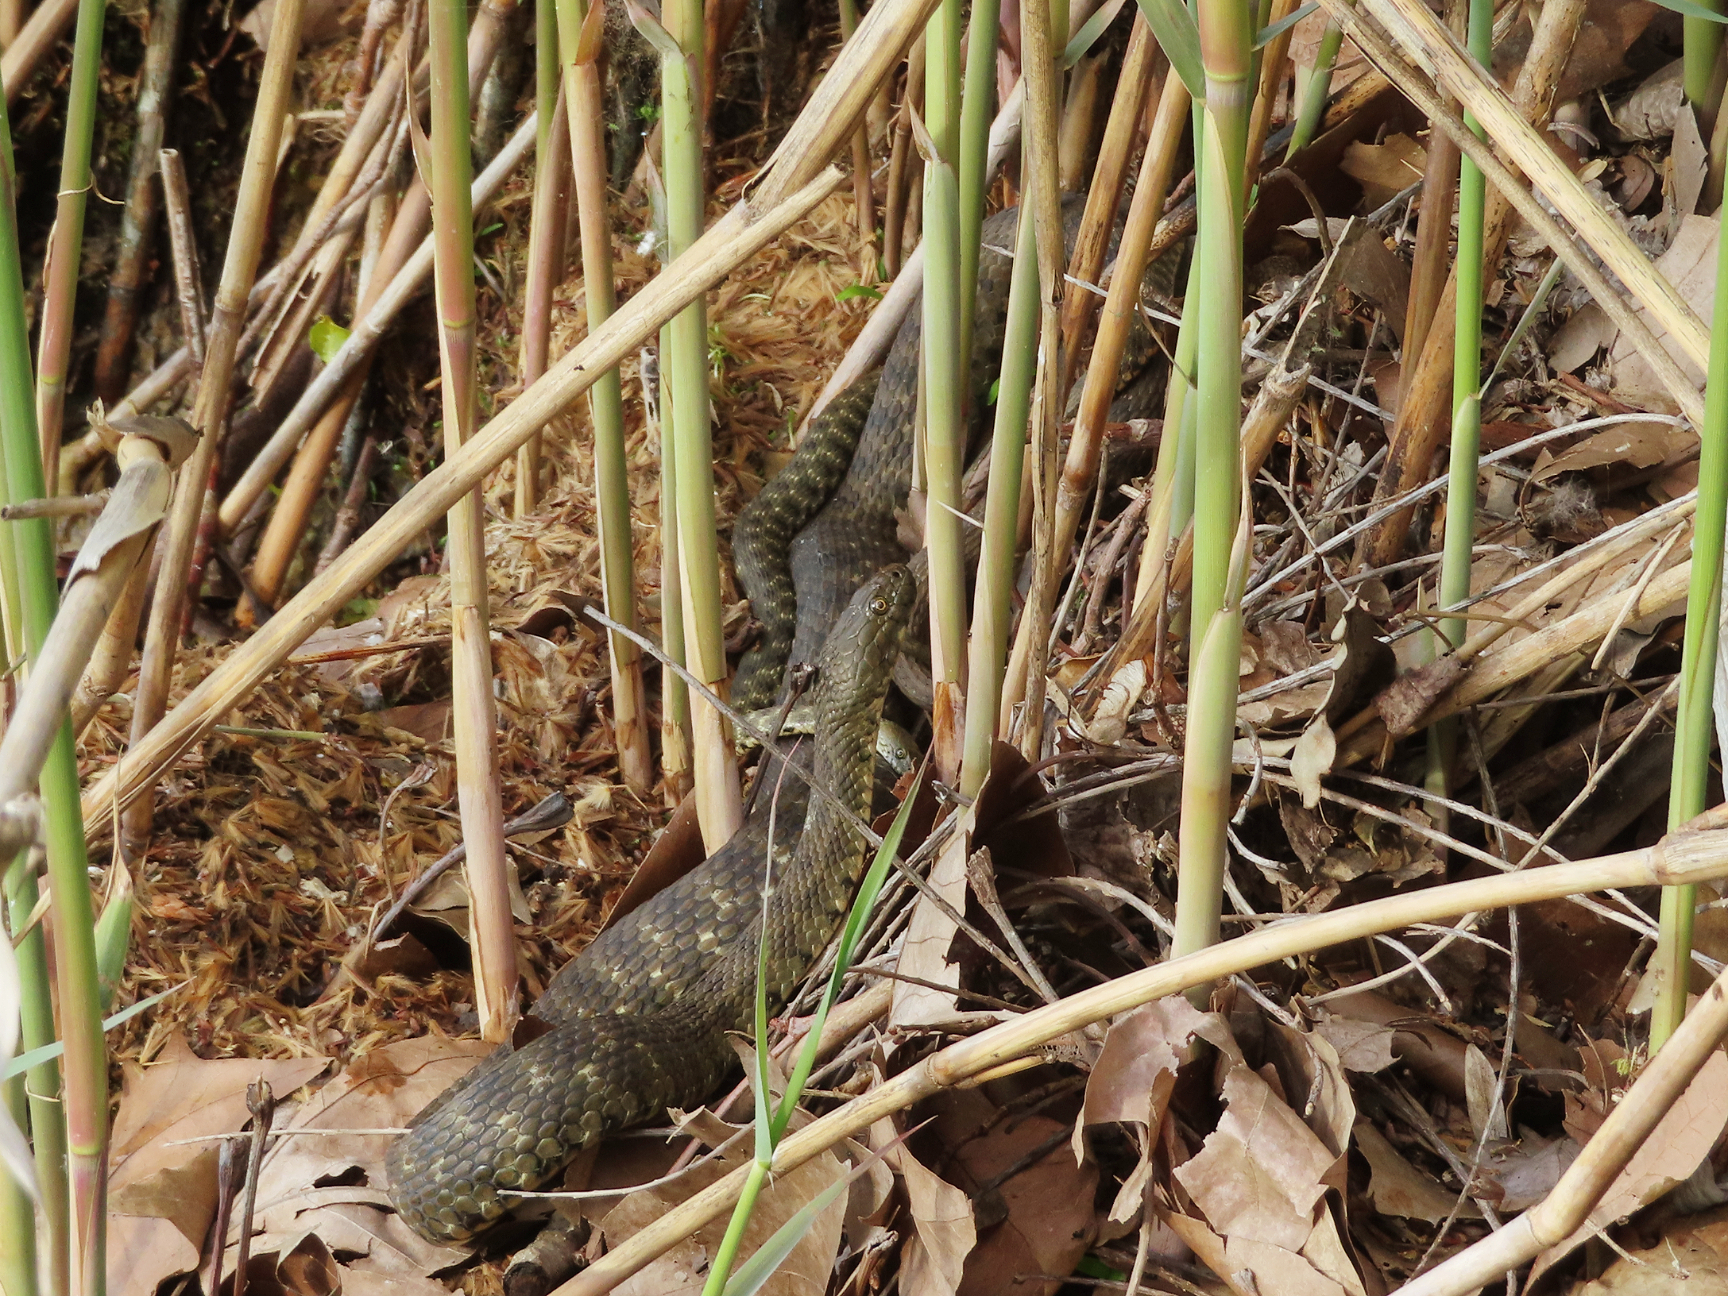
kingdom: Animalia
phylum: Chordata
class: Squamata
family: Colubridae
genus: Natrix
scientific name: Natrix tessellata
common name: Dice snake
